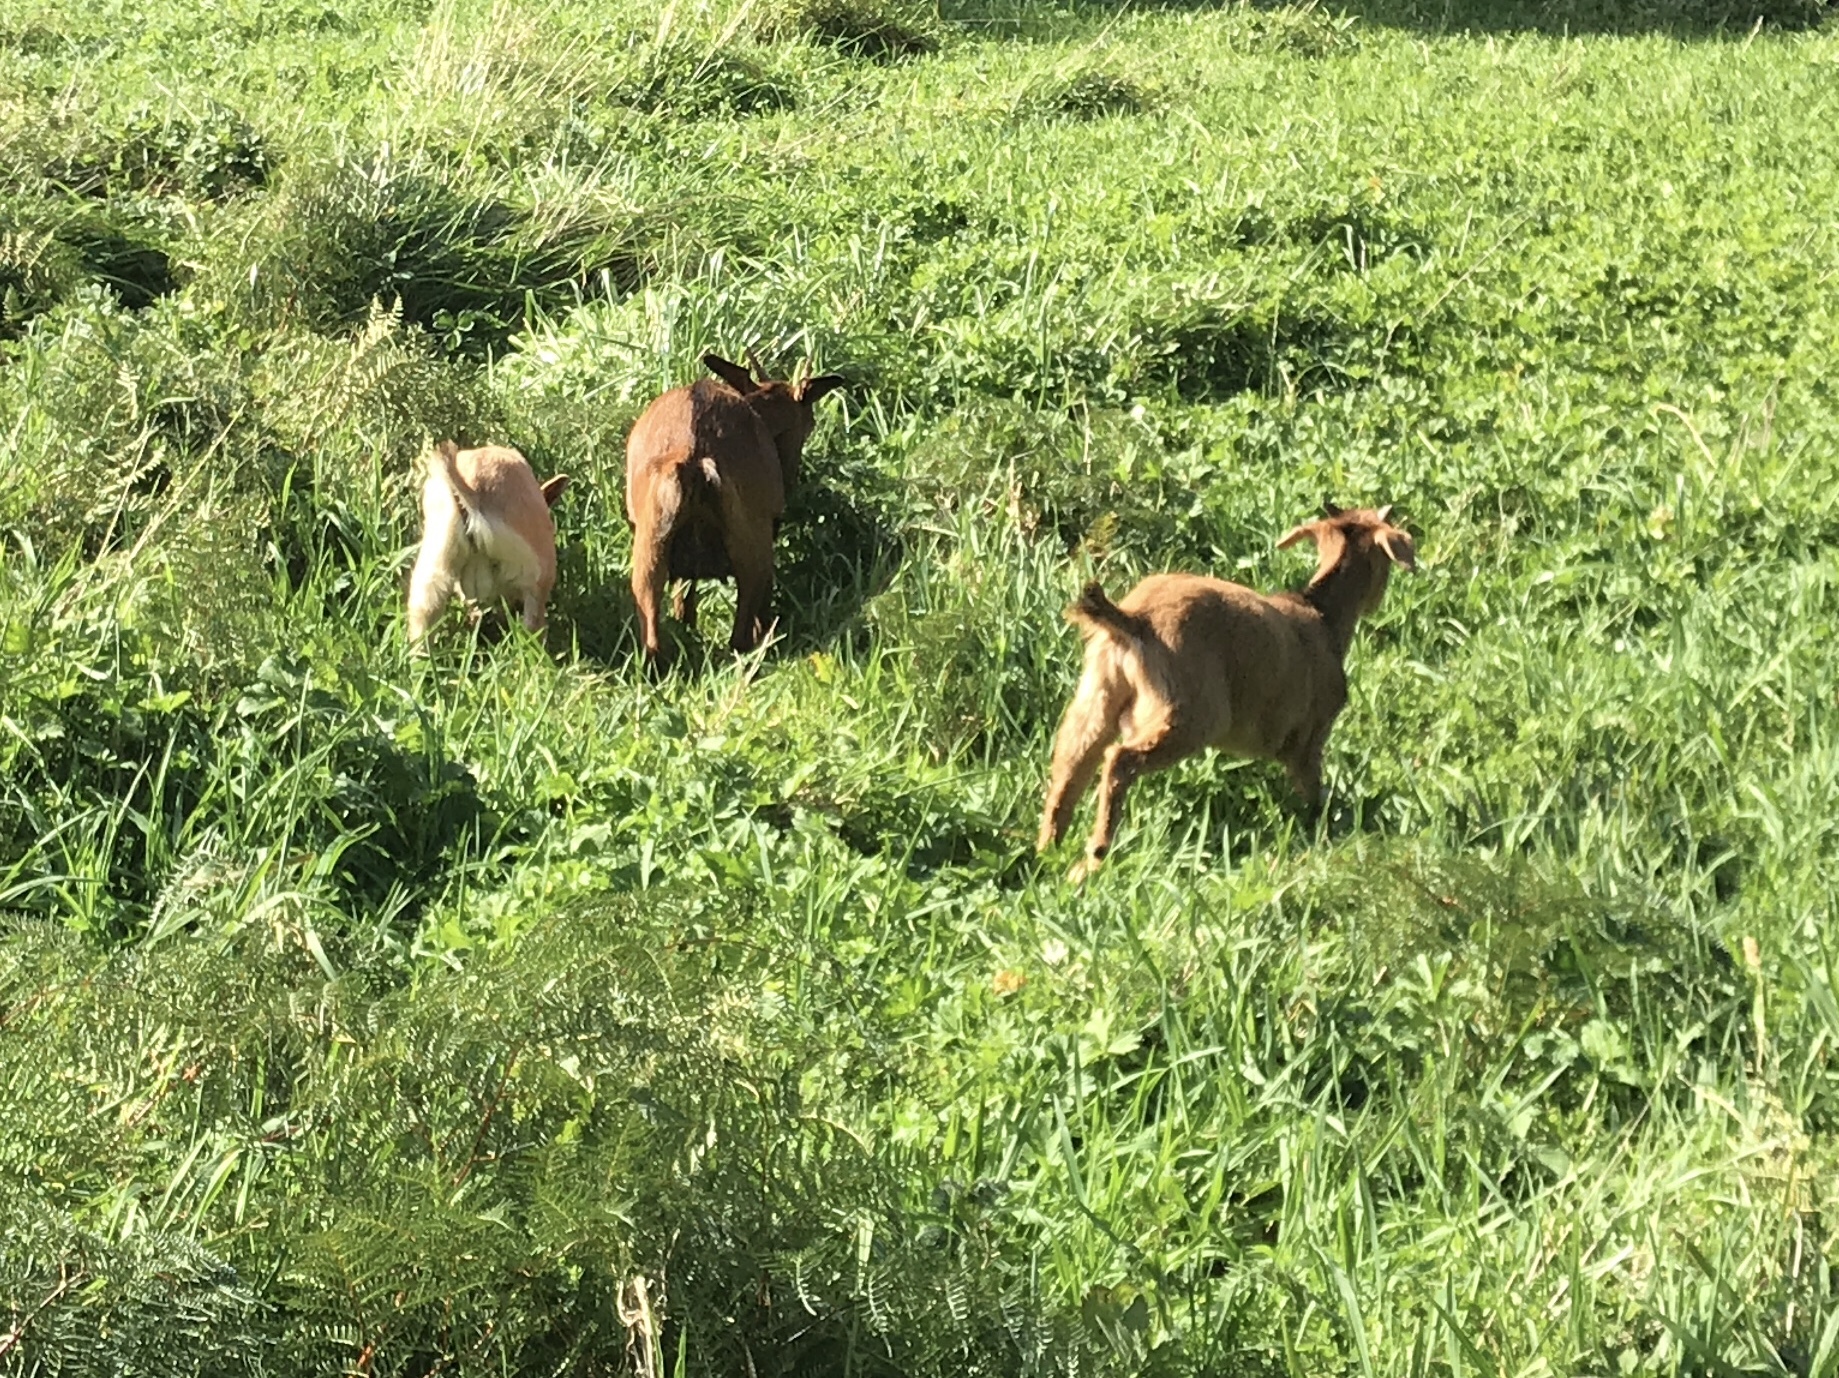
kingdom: Animalia
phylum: Chordata
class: Mammalia
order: Artiodactyla
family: Bovidae
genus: Capra
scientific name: Capra hircus
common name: Domestic goat
